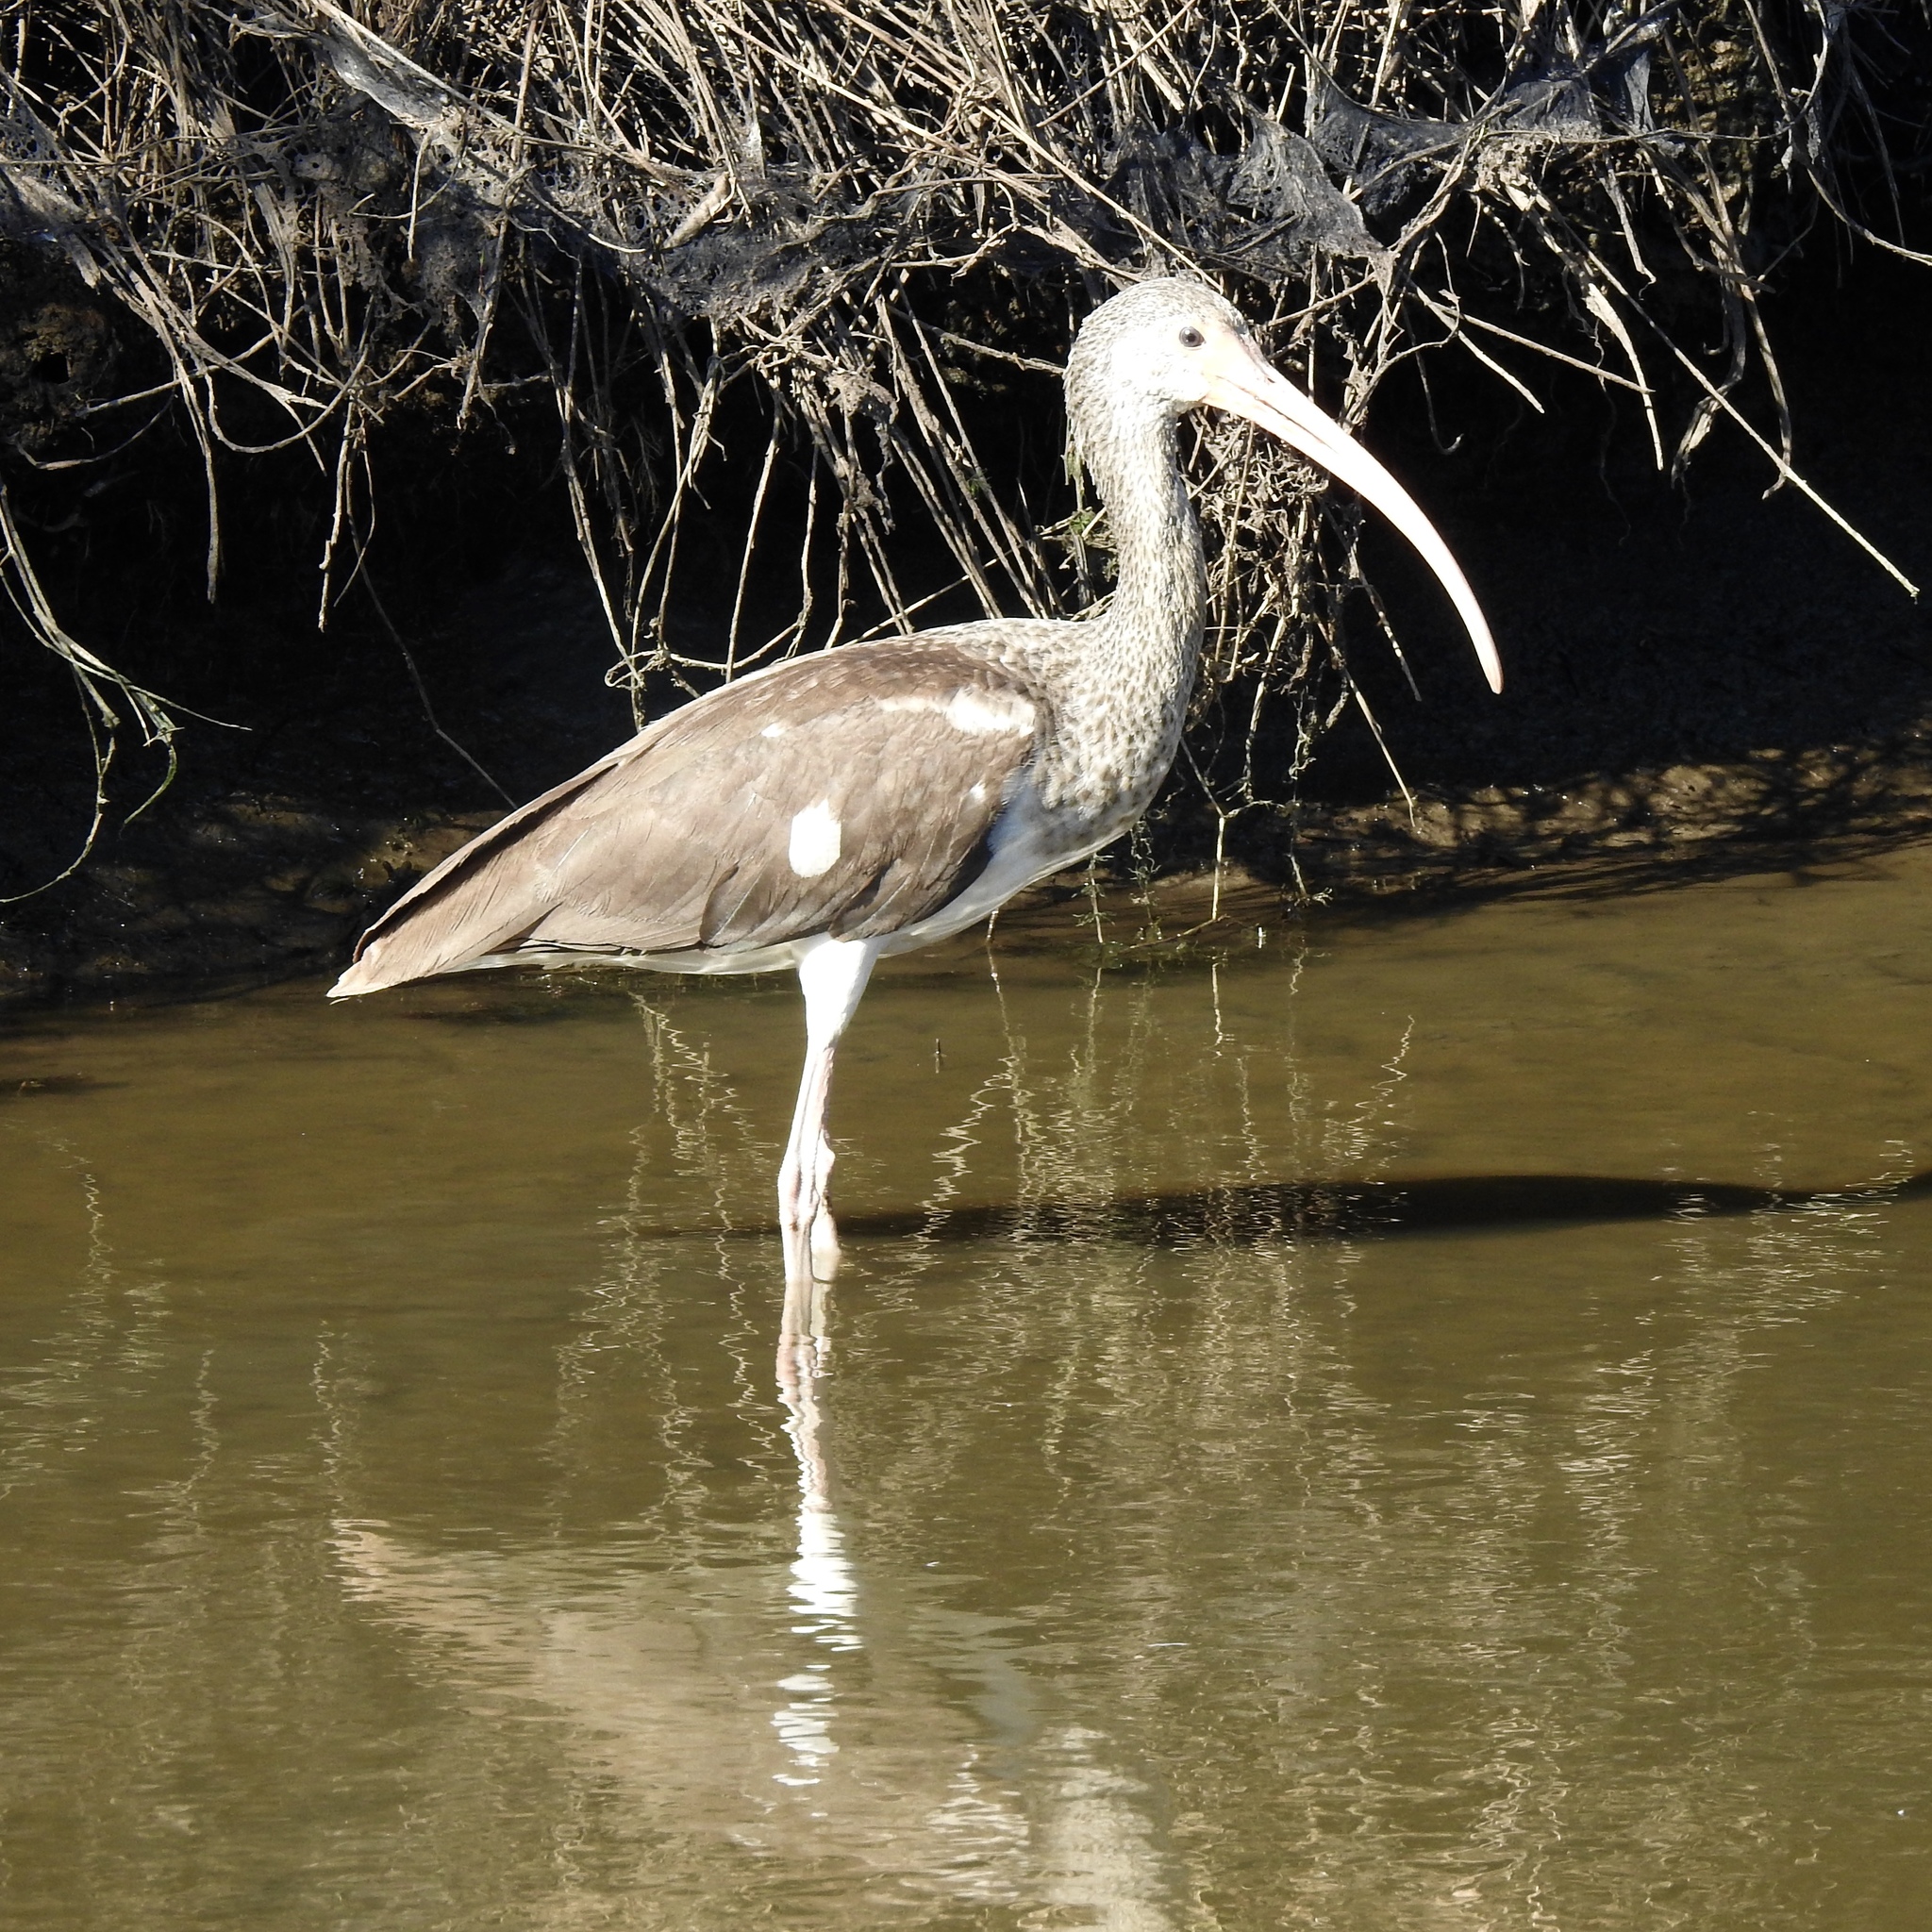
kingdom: Animalia
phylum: Chordata
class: Aves
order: Pelecaniformes
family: Threskiornithidae
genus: Eudocimus
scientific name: Eudocimus albus
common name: White ibis
